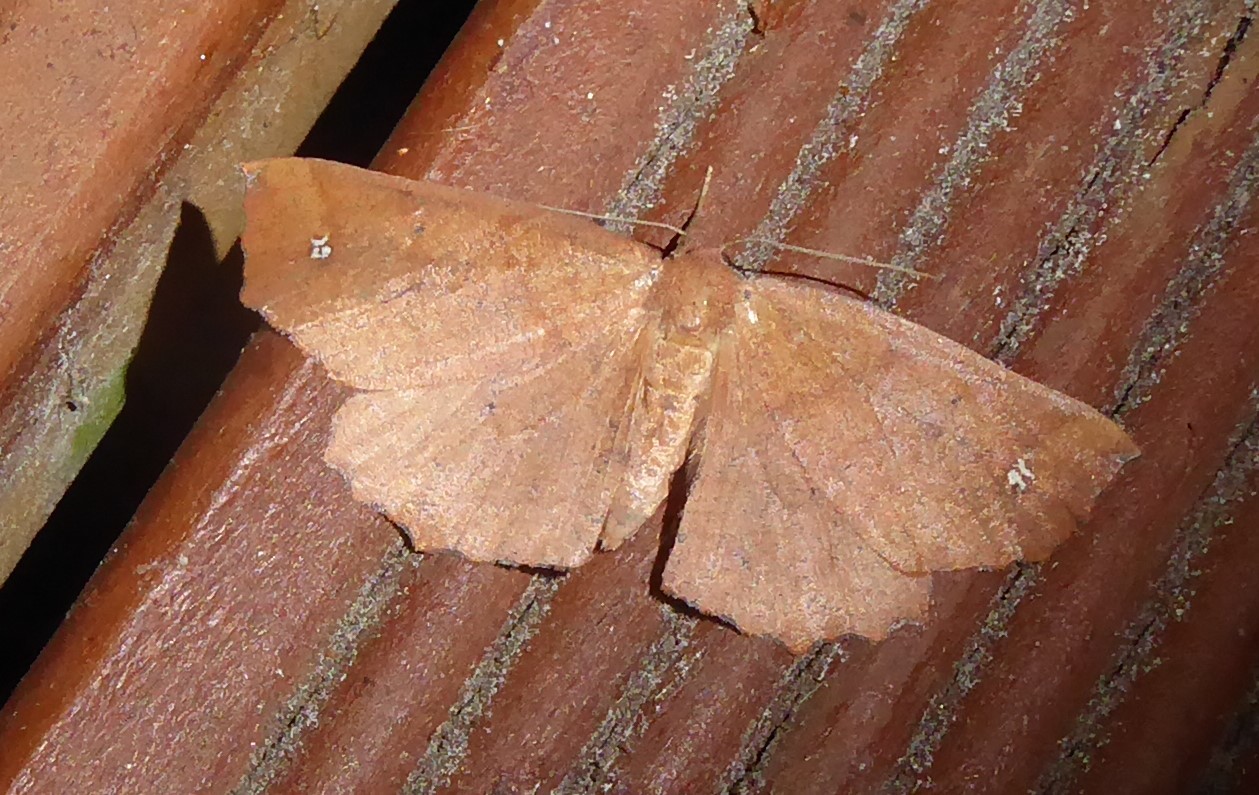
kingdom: Animalia
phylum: Arthropoda
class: Insecta
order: Lepidoptera
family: Geometridae
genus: Xyridacma
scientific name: Xyridacma ustaria
